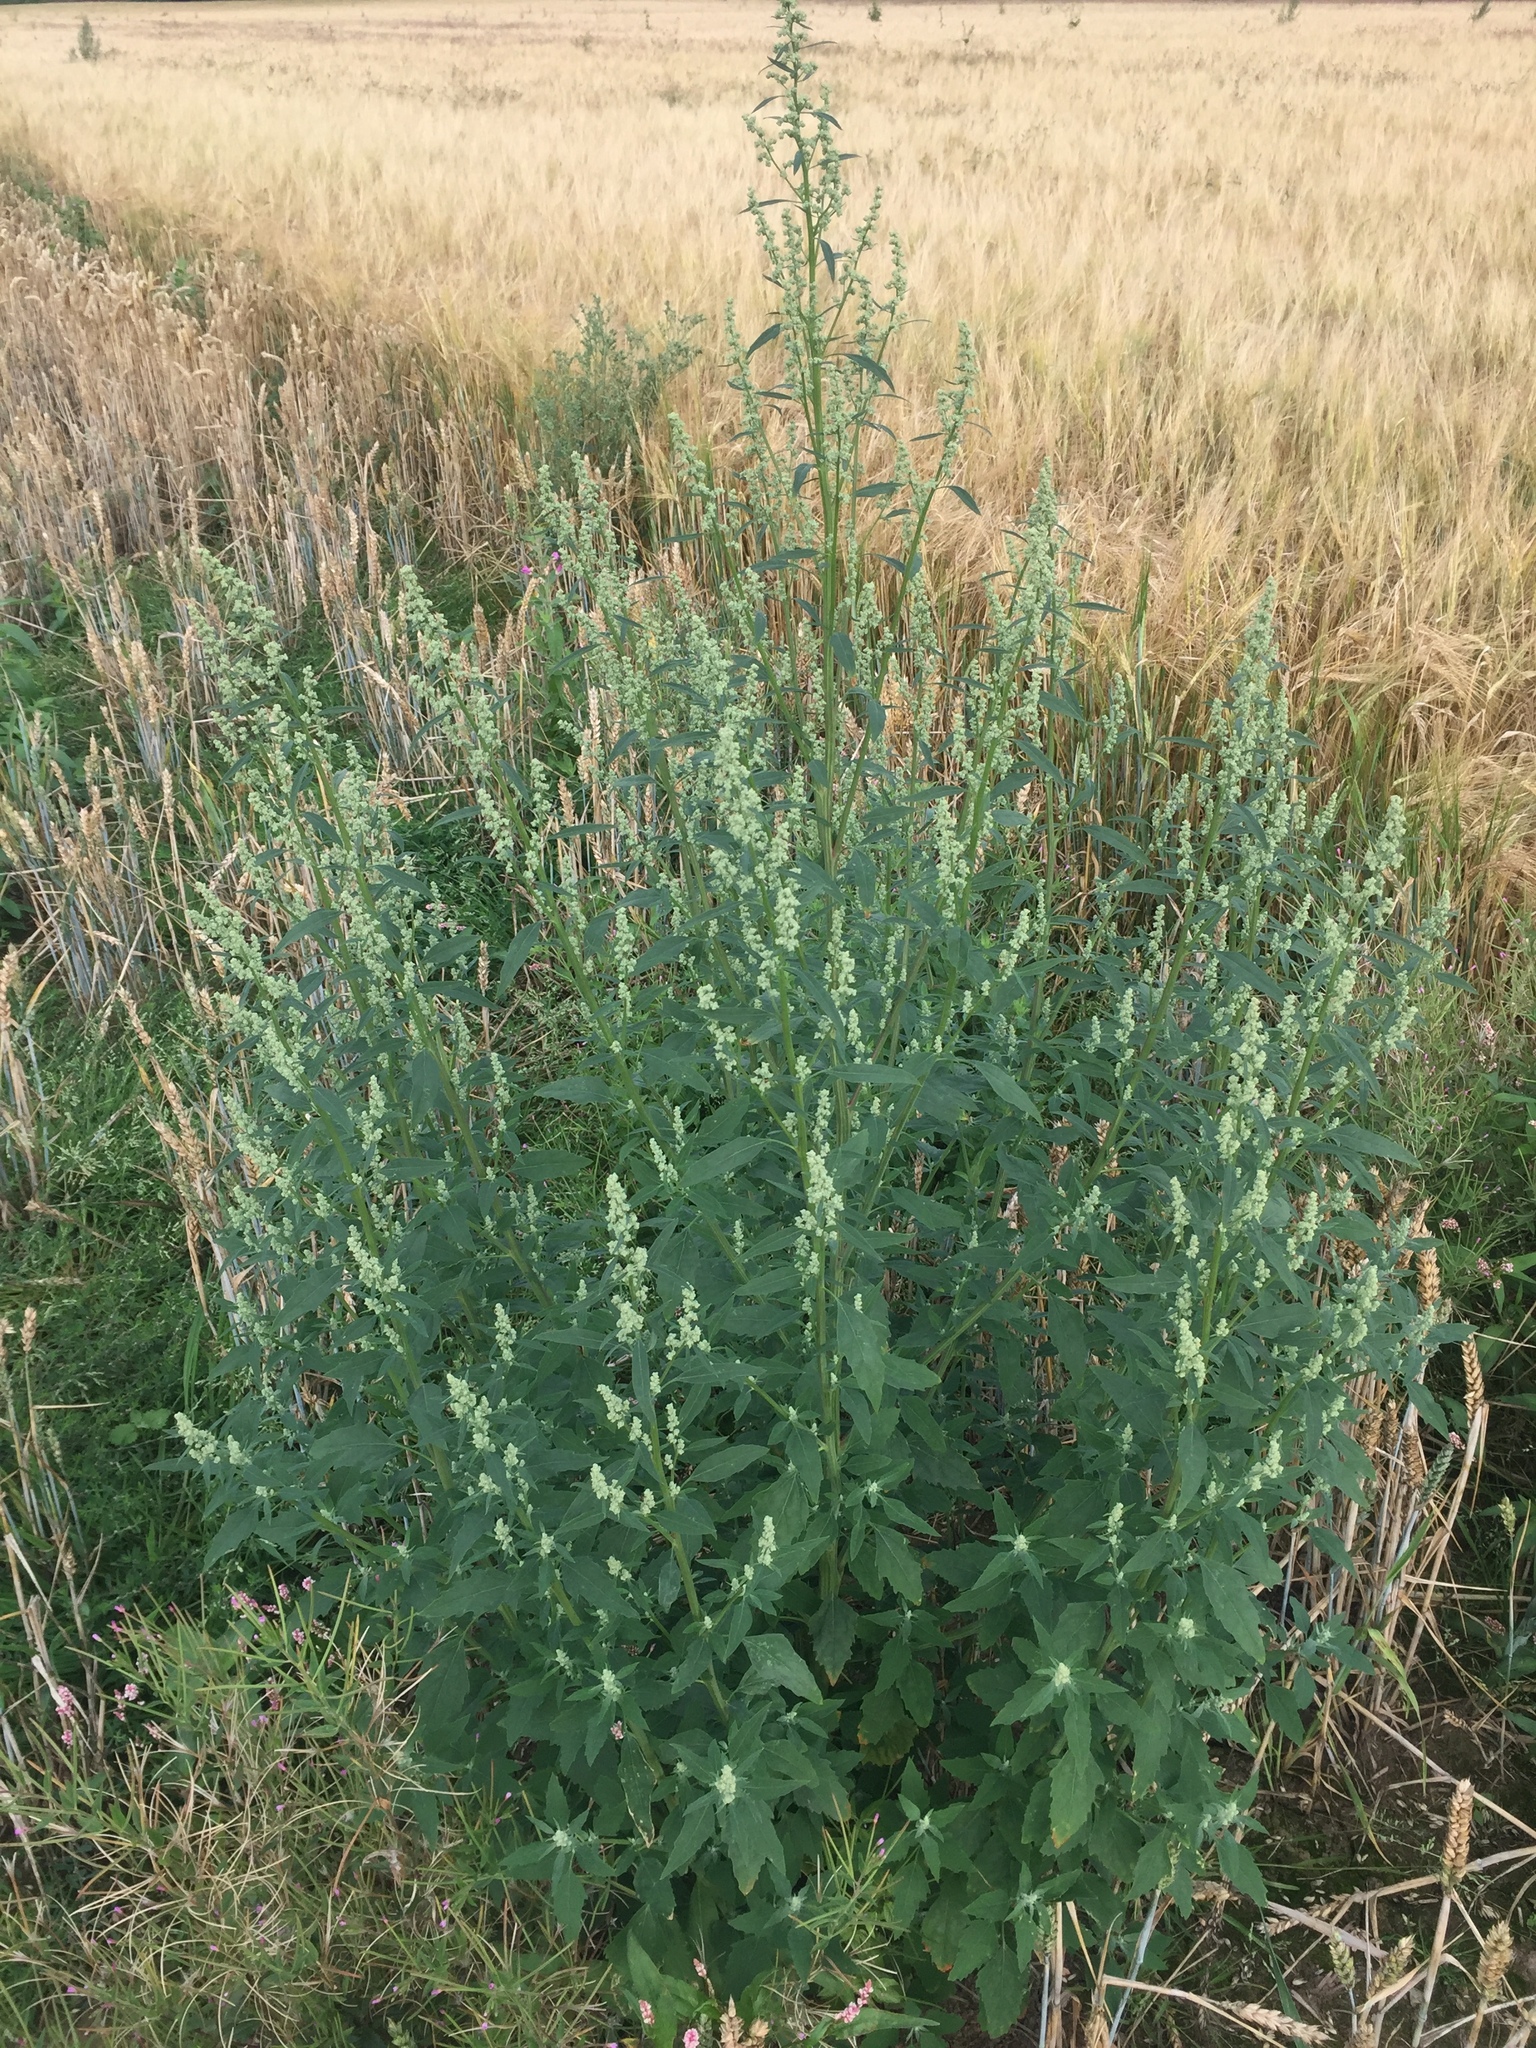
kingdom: Plantae
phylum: Tracheophyta
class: Magnoliopsida
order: Caryophyllales
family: Amaranthaceae
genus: Chenopodium
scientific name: Chenopodium album
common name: Fat-hen
